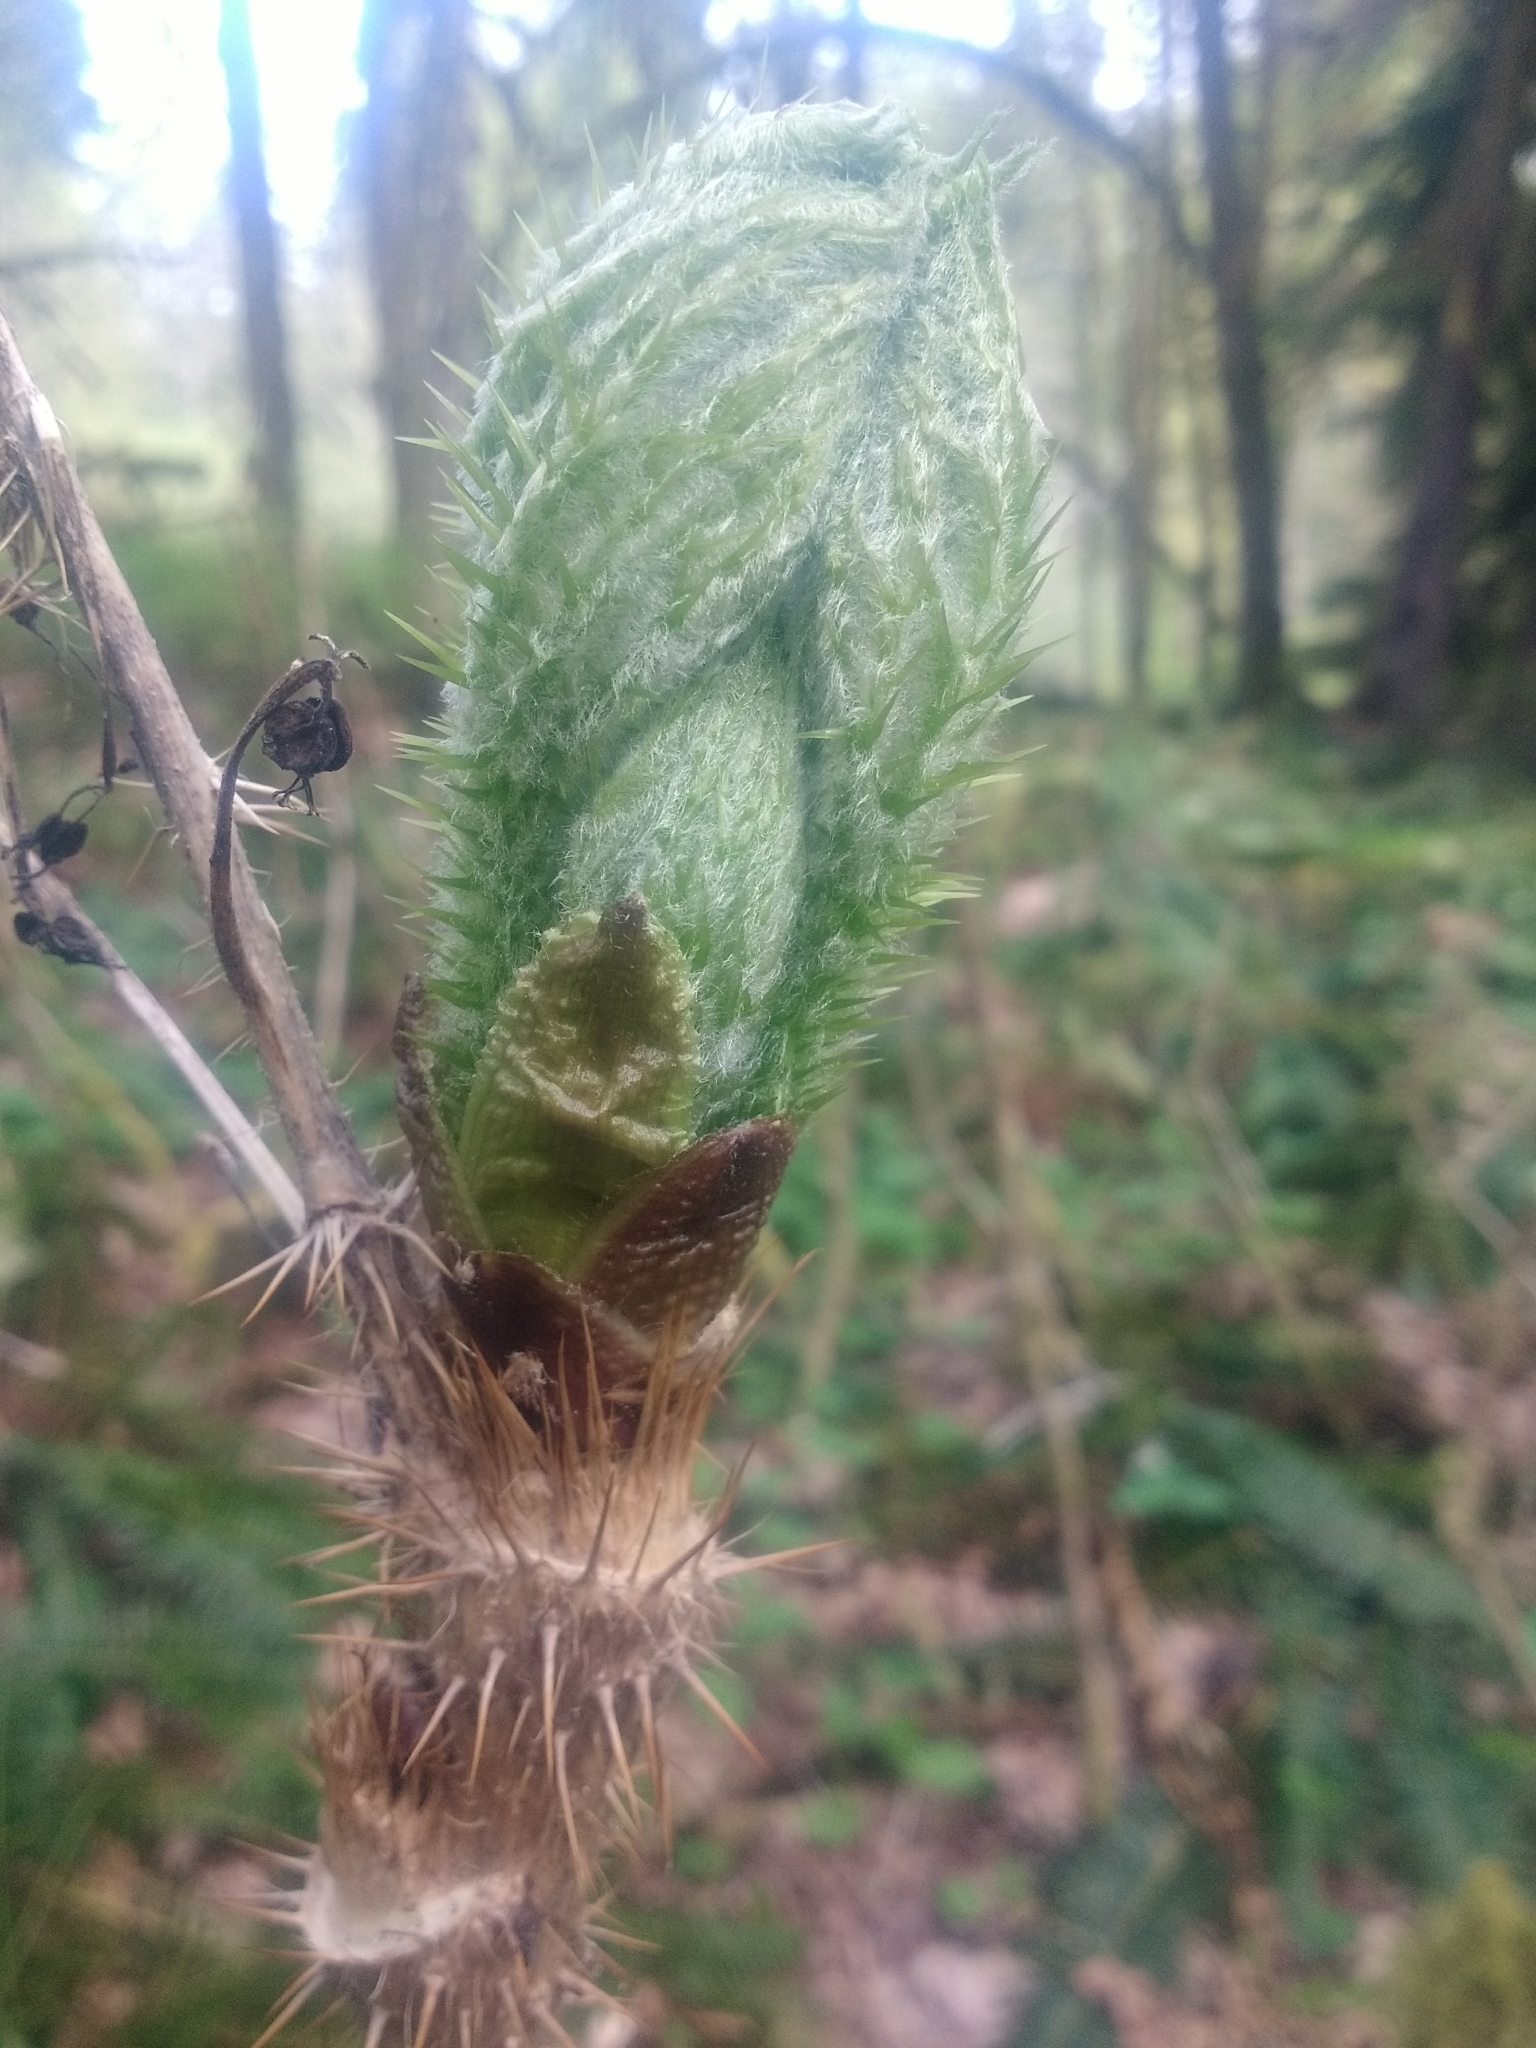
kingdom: Plantae
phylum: Tracheophyta
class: Magnoliopsida
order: Apiales
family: Araliaceae
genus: Oplopanax
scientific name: Oplopanax horridus
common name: Devil's walking-stick
